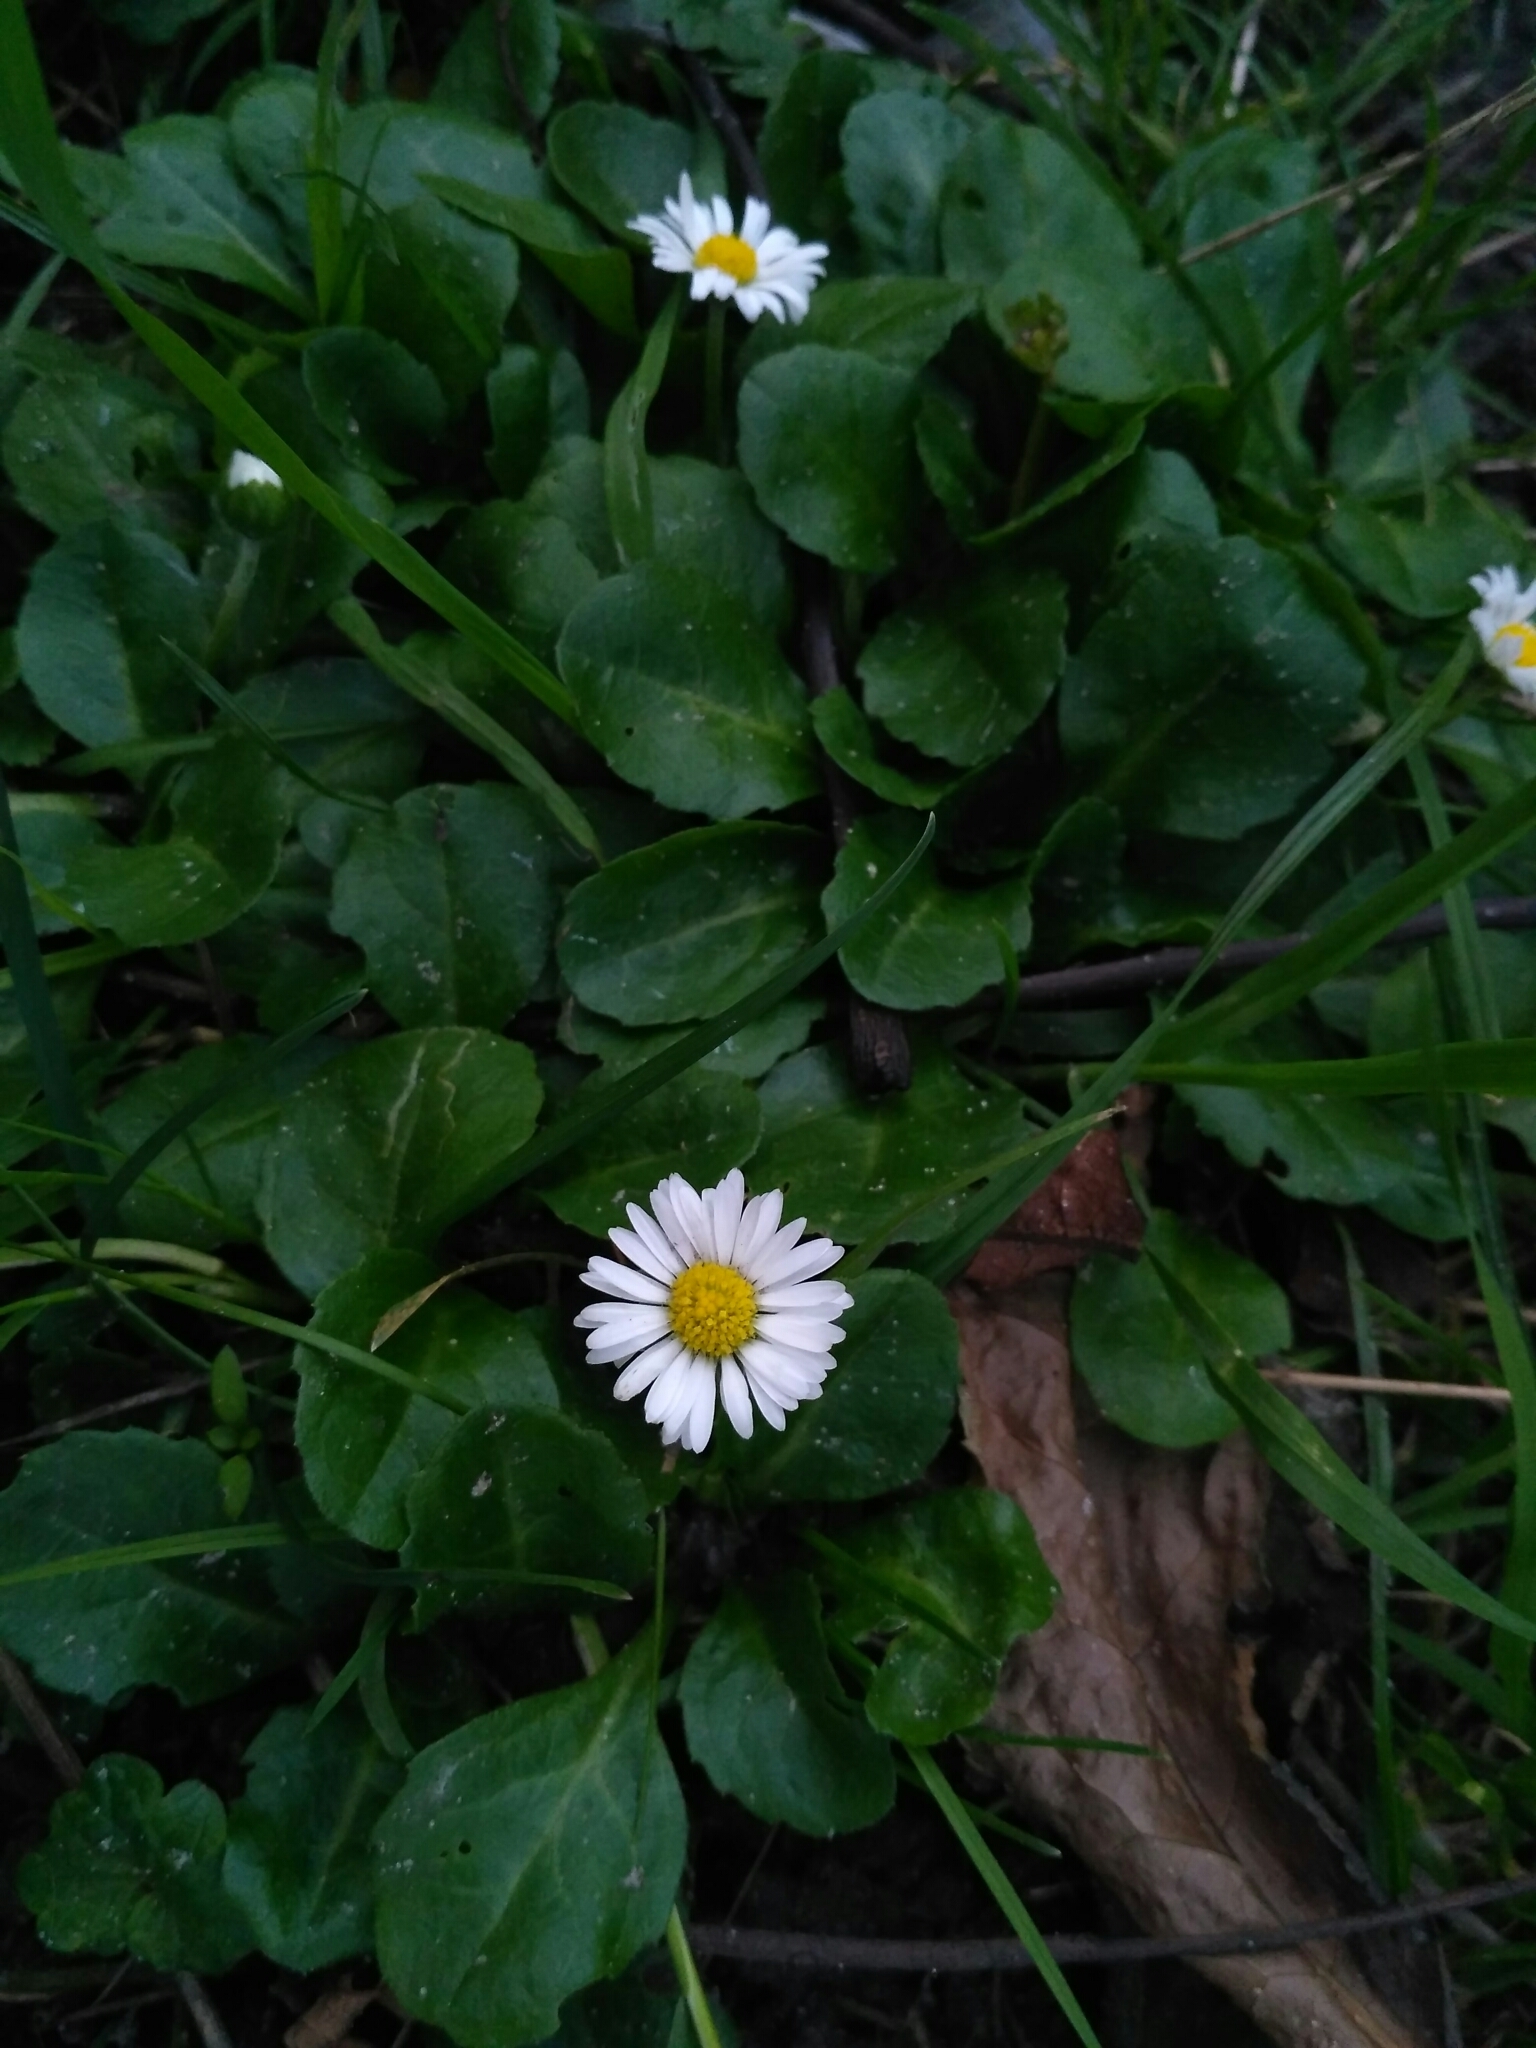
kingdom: Plantae
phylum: Tracheophyta
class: Magnoliopsida
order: Asterales
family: Asteraceae
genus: Bellis
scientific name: Bellis perennis
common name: Lawndaisy
